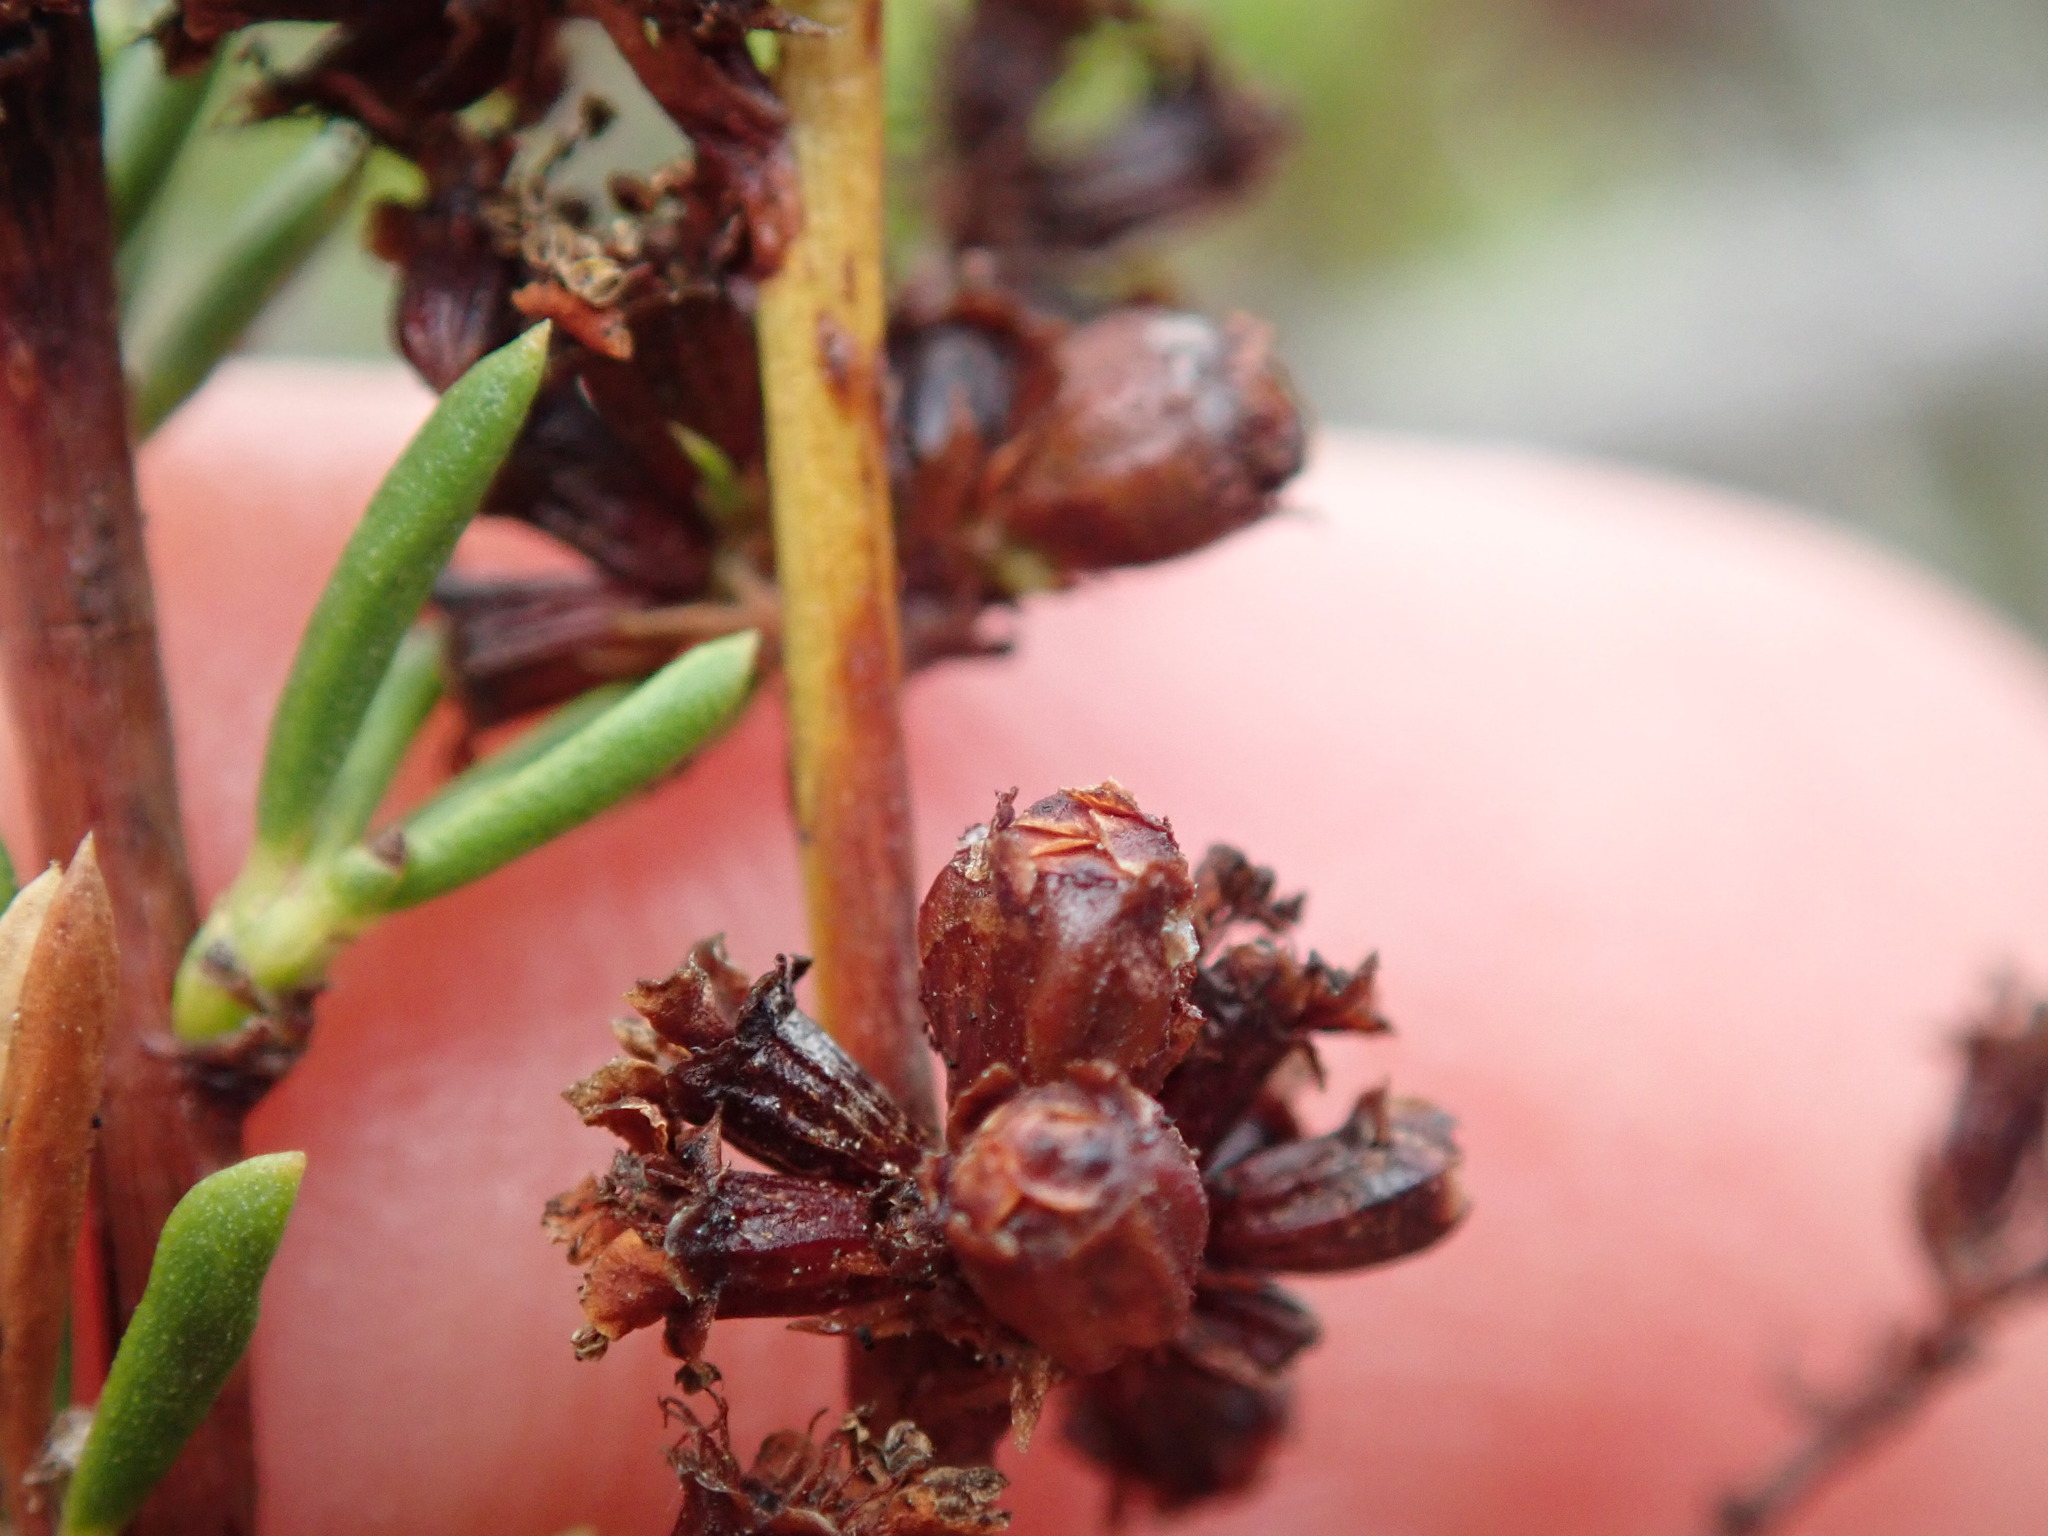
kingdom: Animalia
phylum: Arthropoda
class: Insecta
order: Diptera
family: Cecidomyiidae
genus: Asphondylia
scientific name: Asphondylia adenostoma
